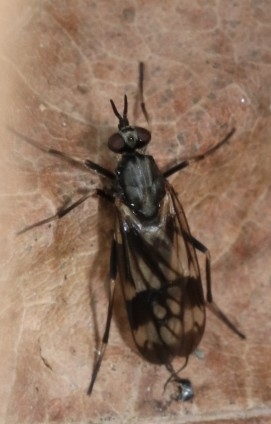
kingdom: Animalia
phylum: Arthropoda
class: Insecta
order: Diptera
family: Xylophagidae
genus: Xylophagus
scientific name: Xylophagus lugens
